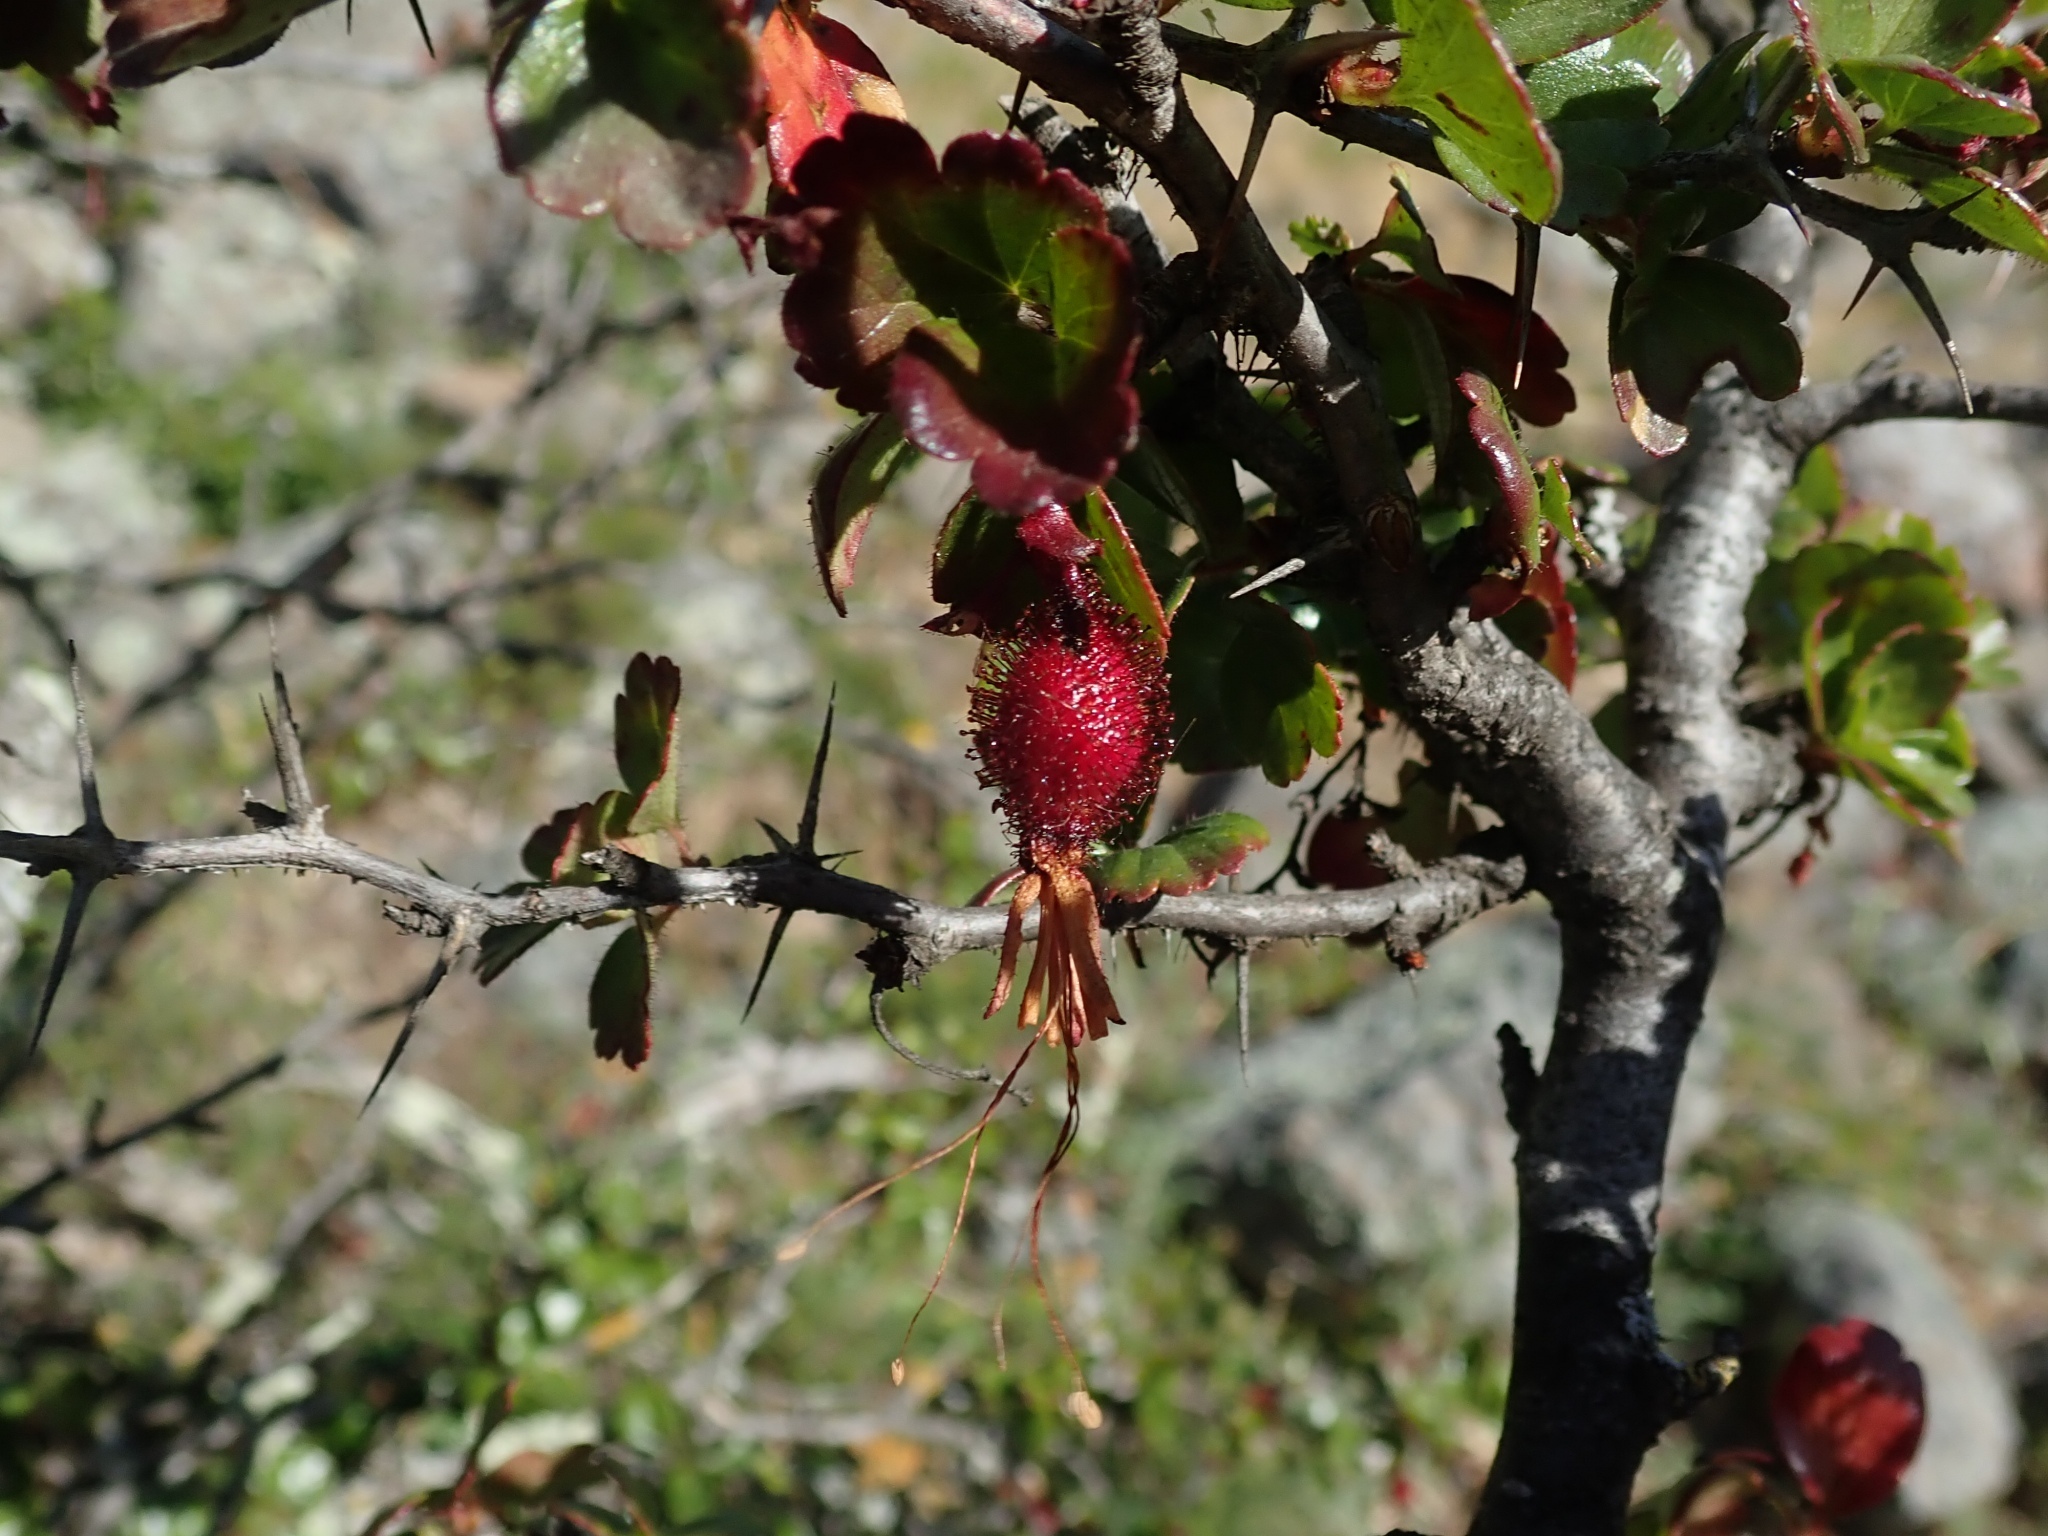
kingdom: Plantae
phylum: Tracheophyta
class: Magnoliopsida
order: Saxifragales
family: Grossulariaceae
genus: Ribes
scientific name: Ribes speciosum
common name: Fuchsia-flower gooseberry
